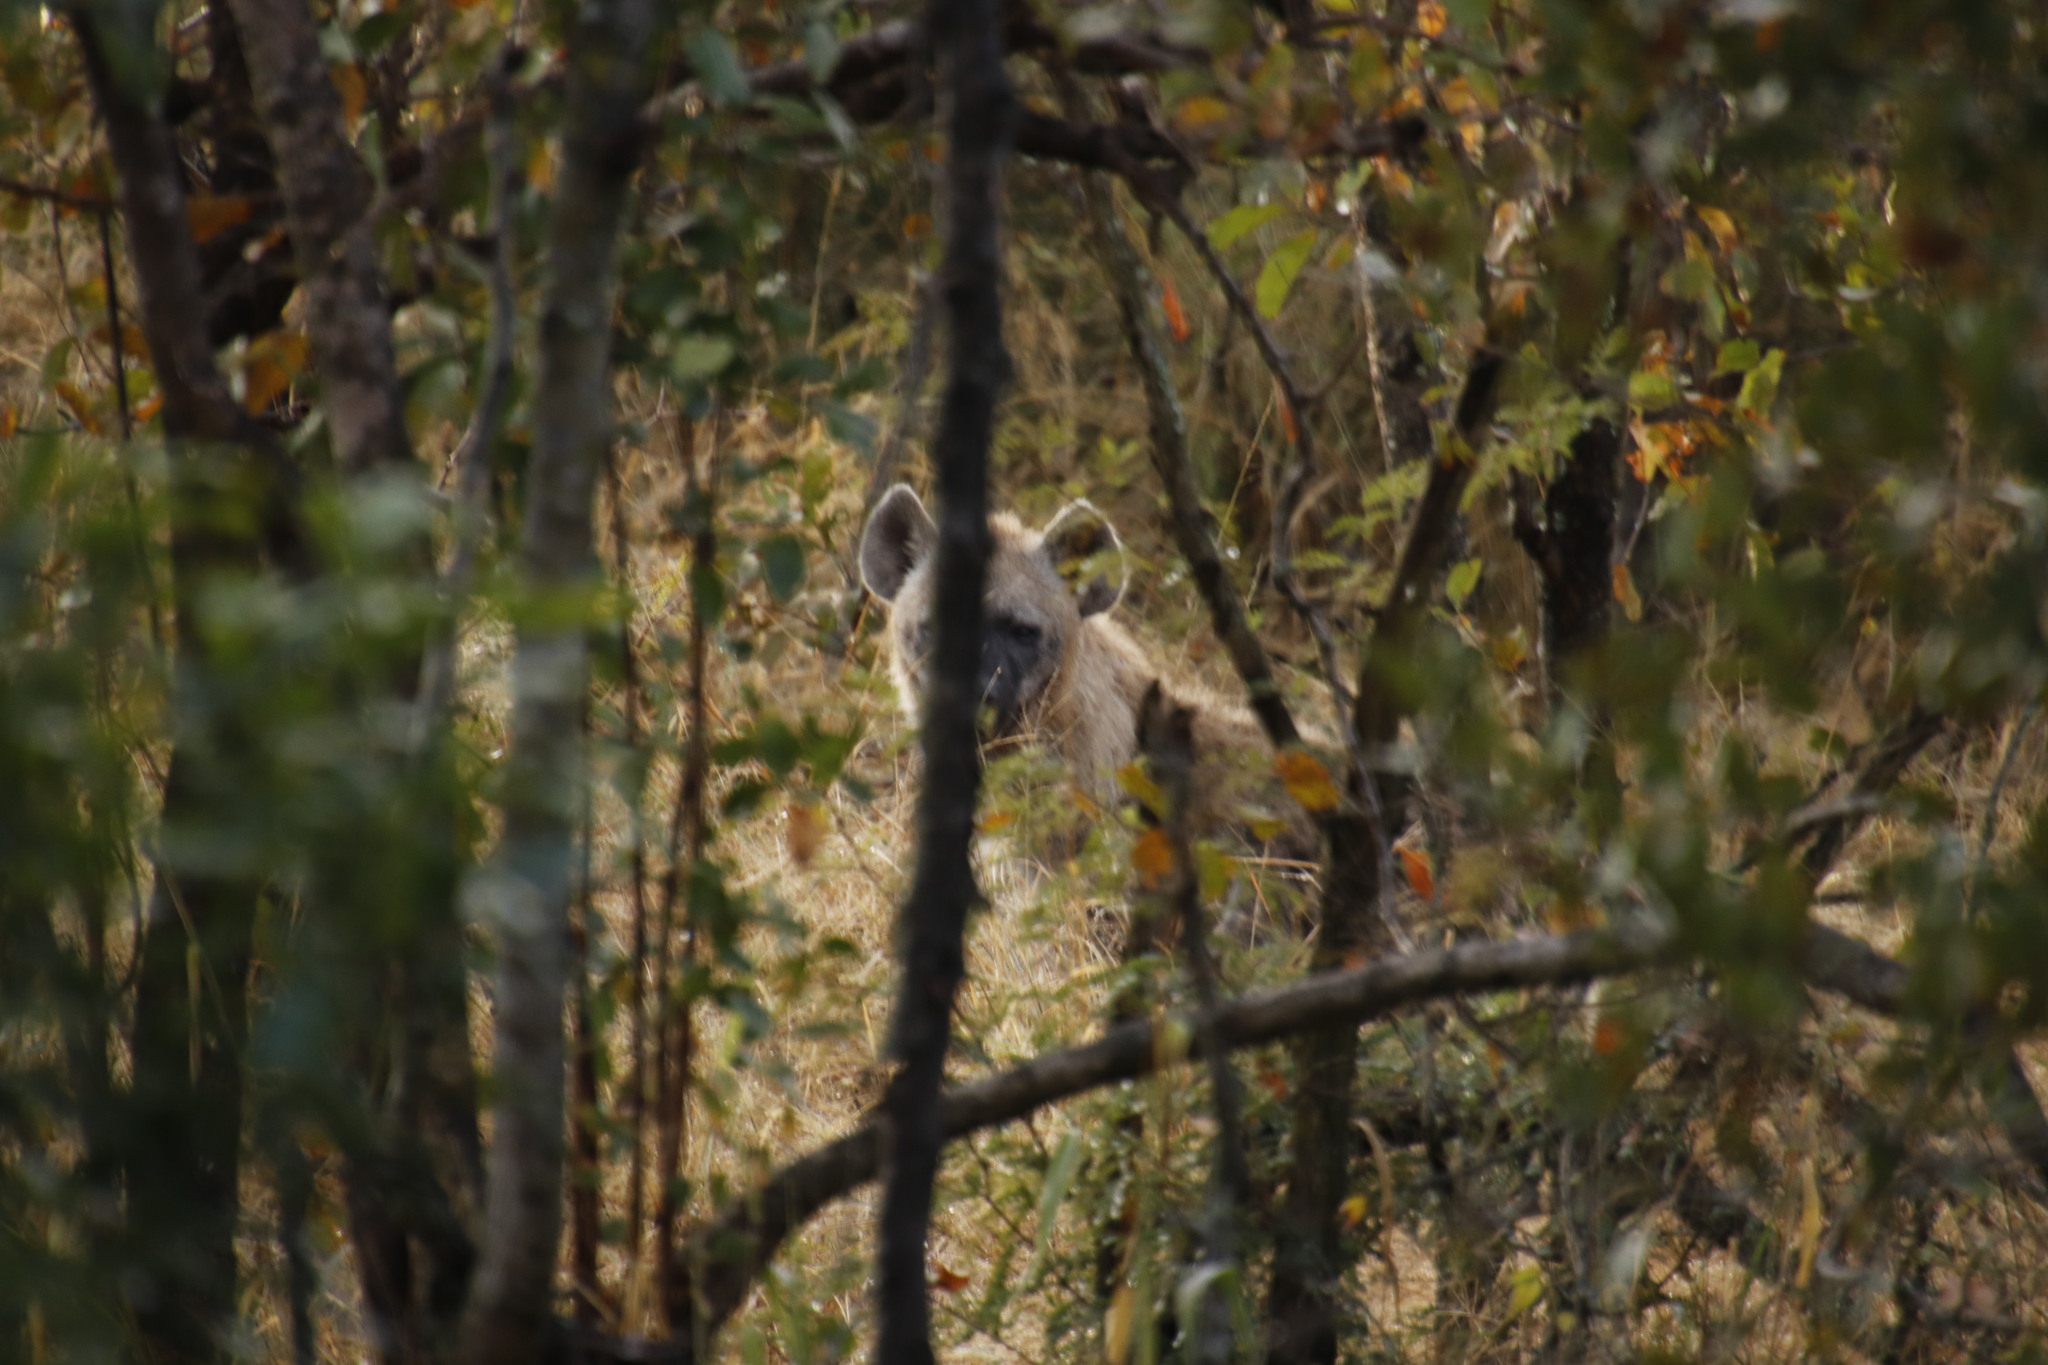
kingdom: Animalia
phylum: Chordata
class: Mammalia
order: Carnivora
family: Hyaenidae
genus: Crocuta
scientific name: Crocuta crocuta
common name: Spotted hyaena
